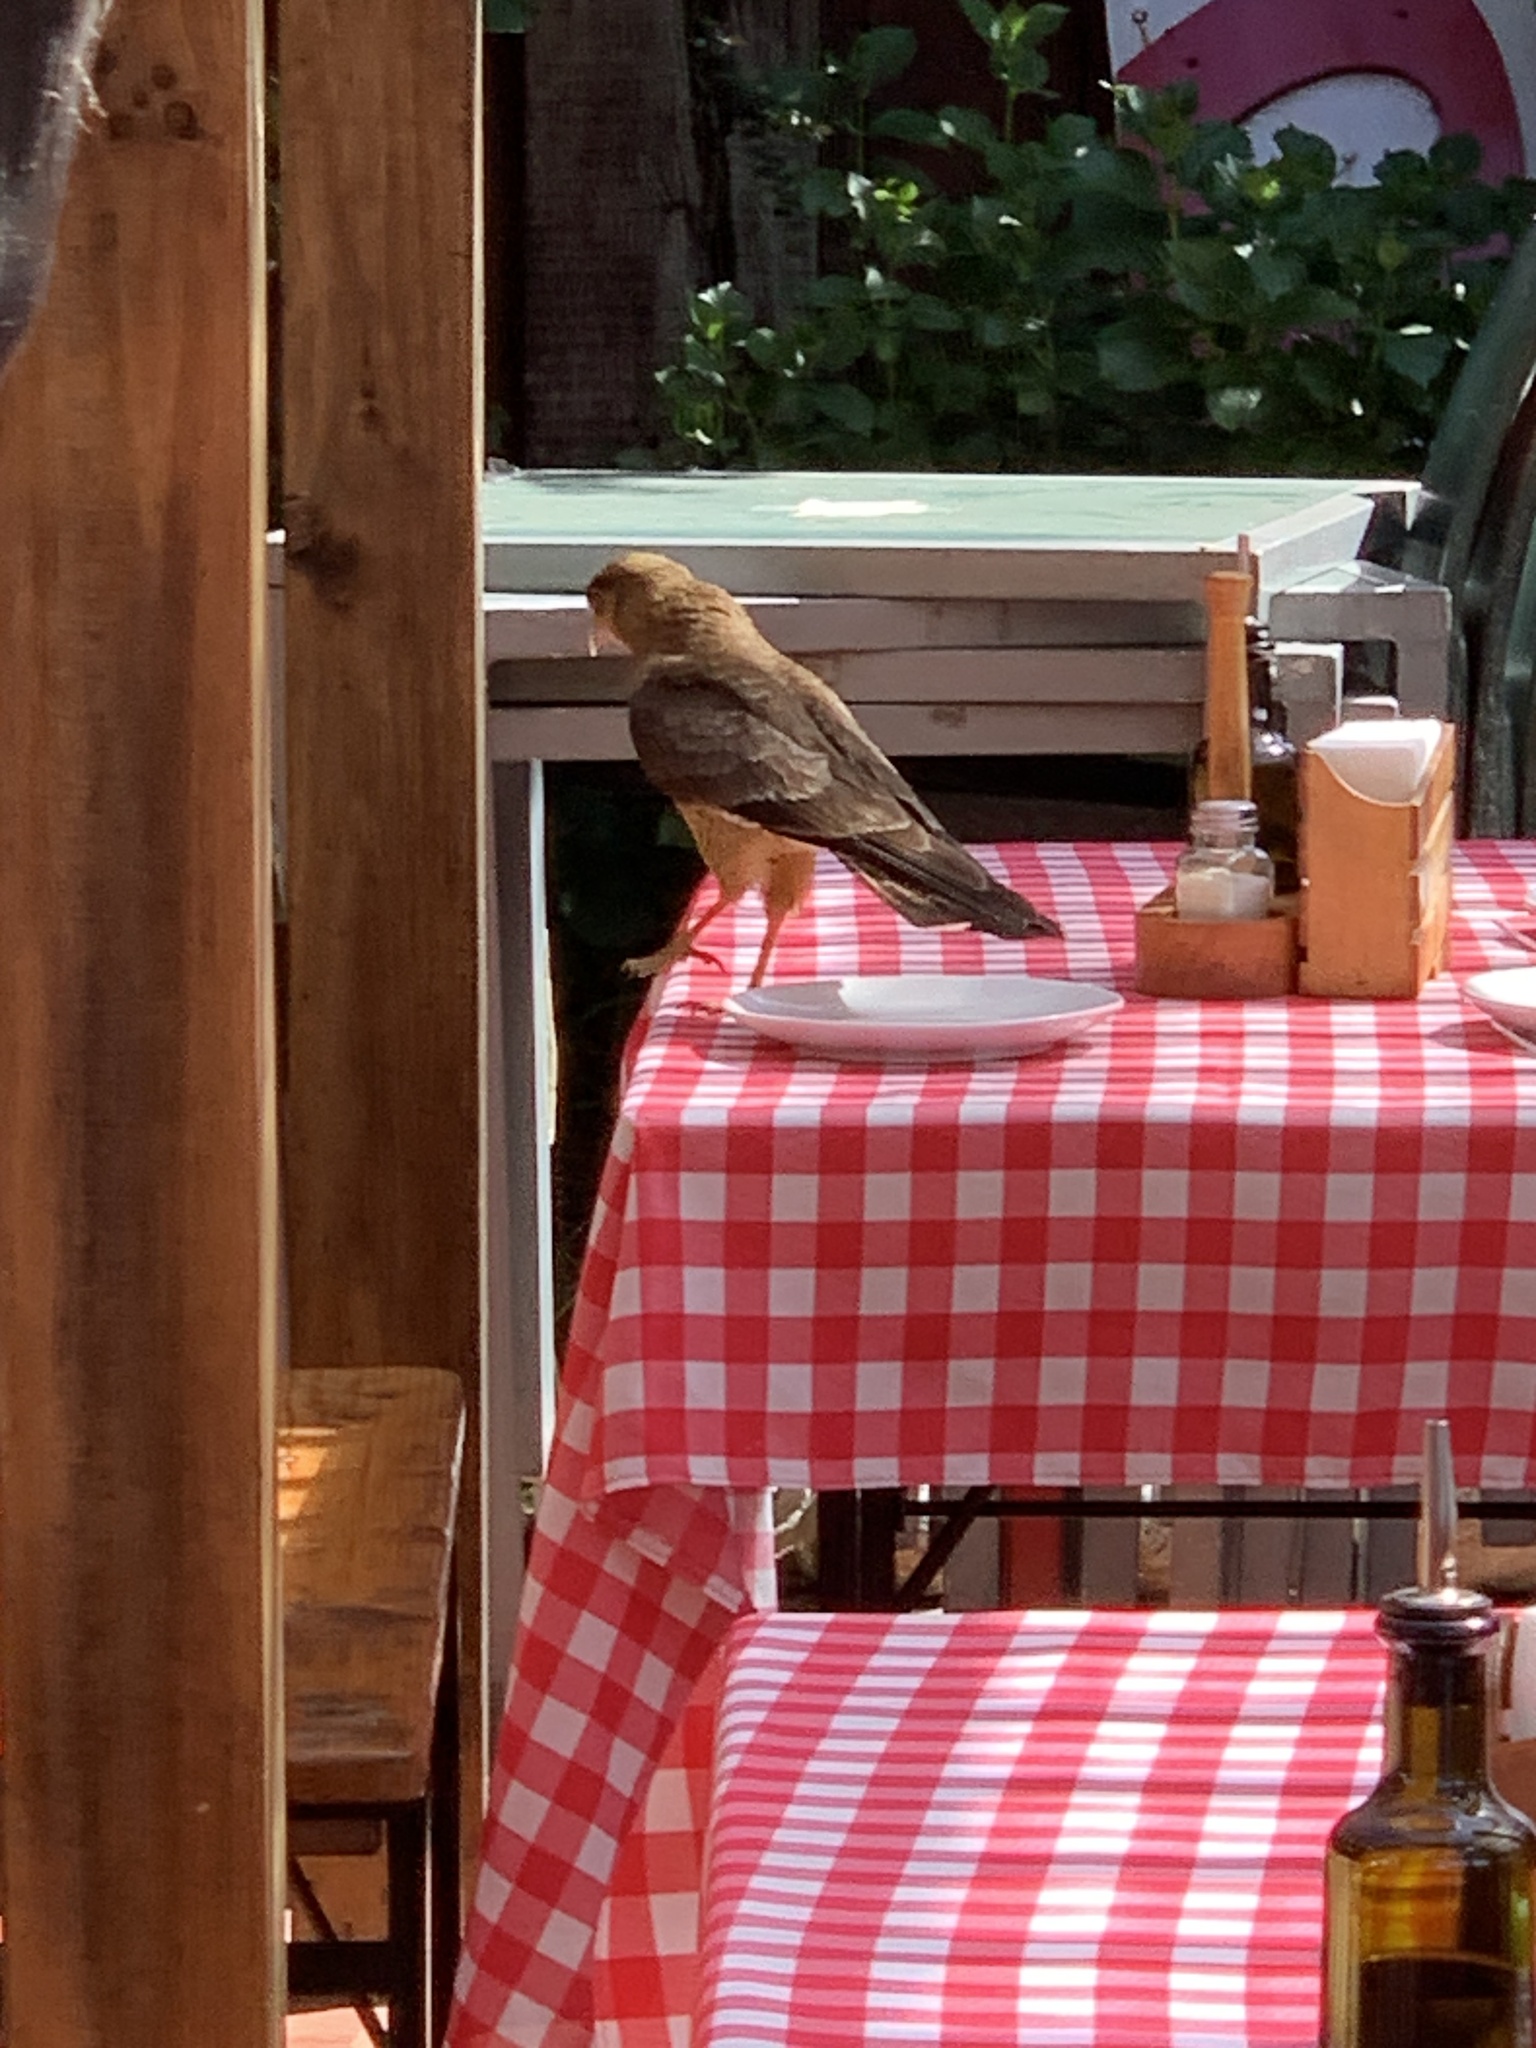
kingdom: Animalia
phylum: Chordata
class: Aves
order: Falconiformes
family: Falconidae
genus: Daptrius
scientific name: Daptrius
